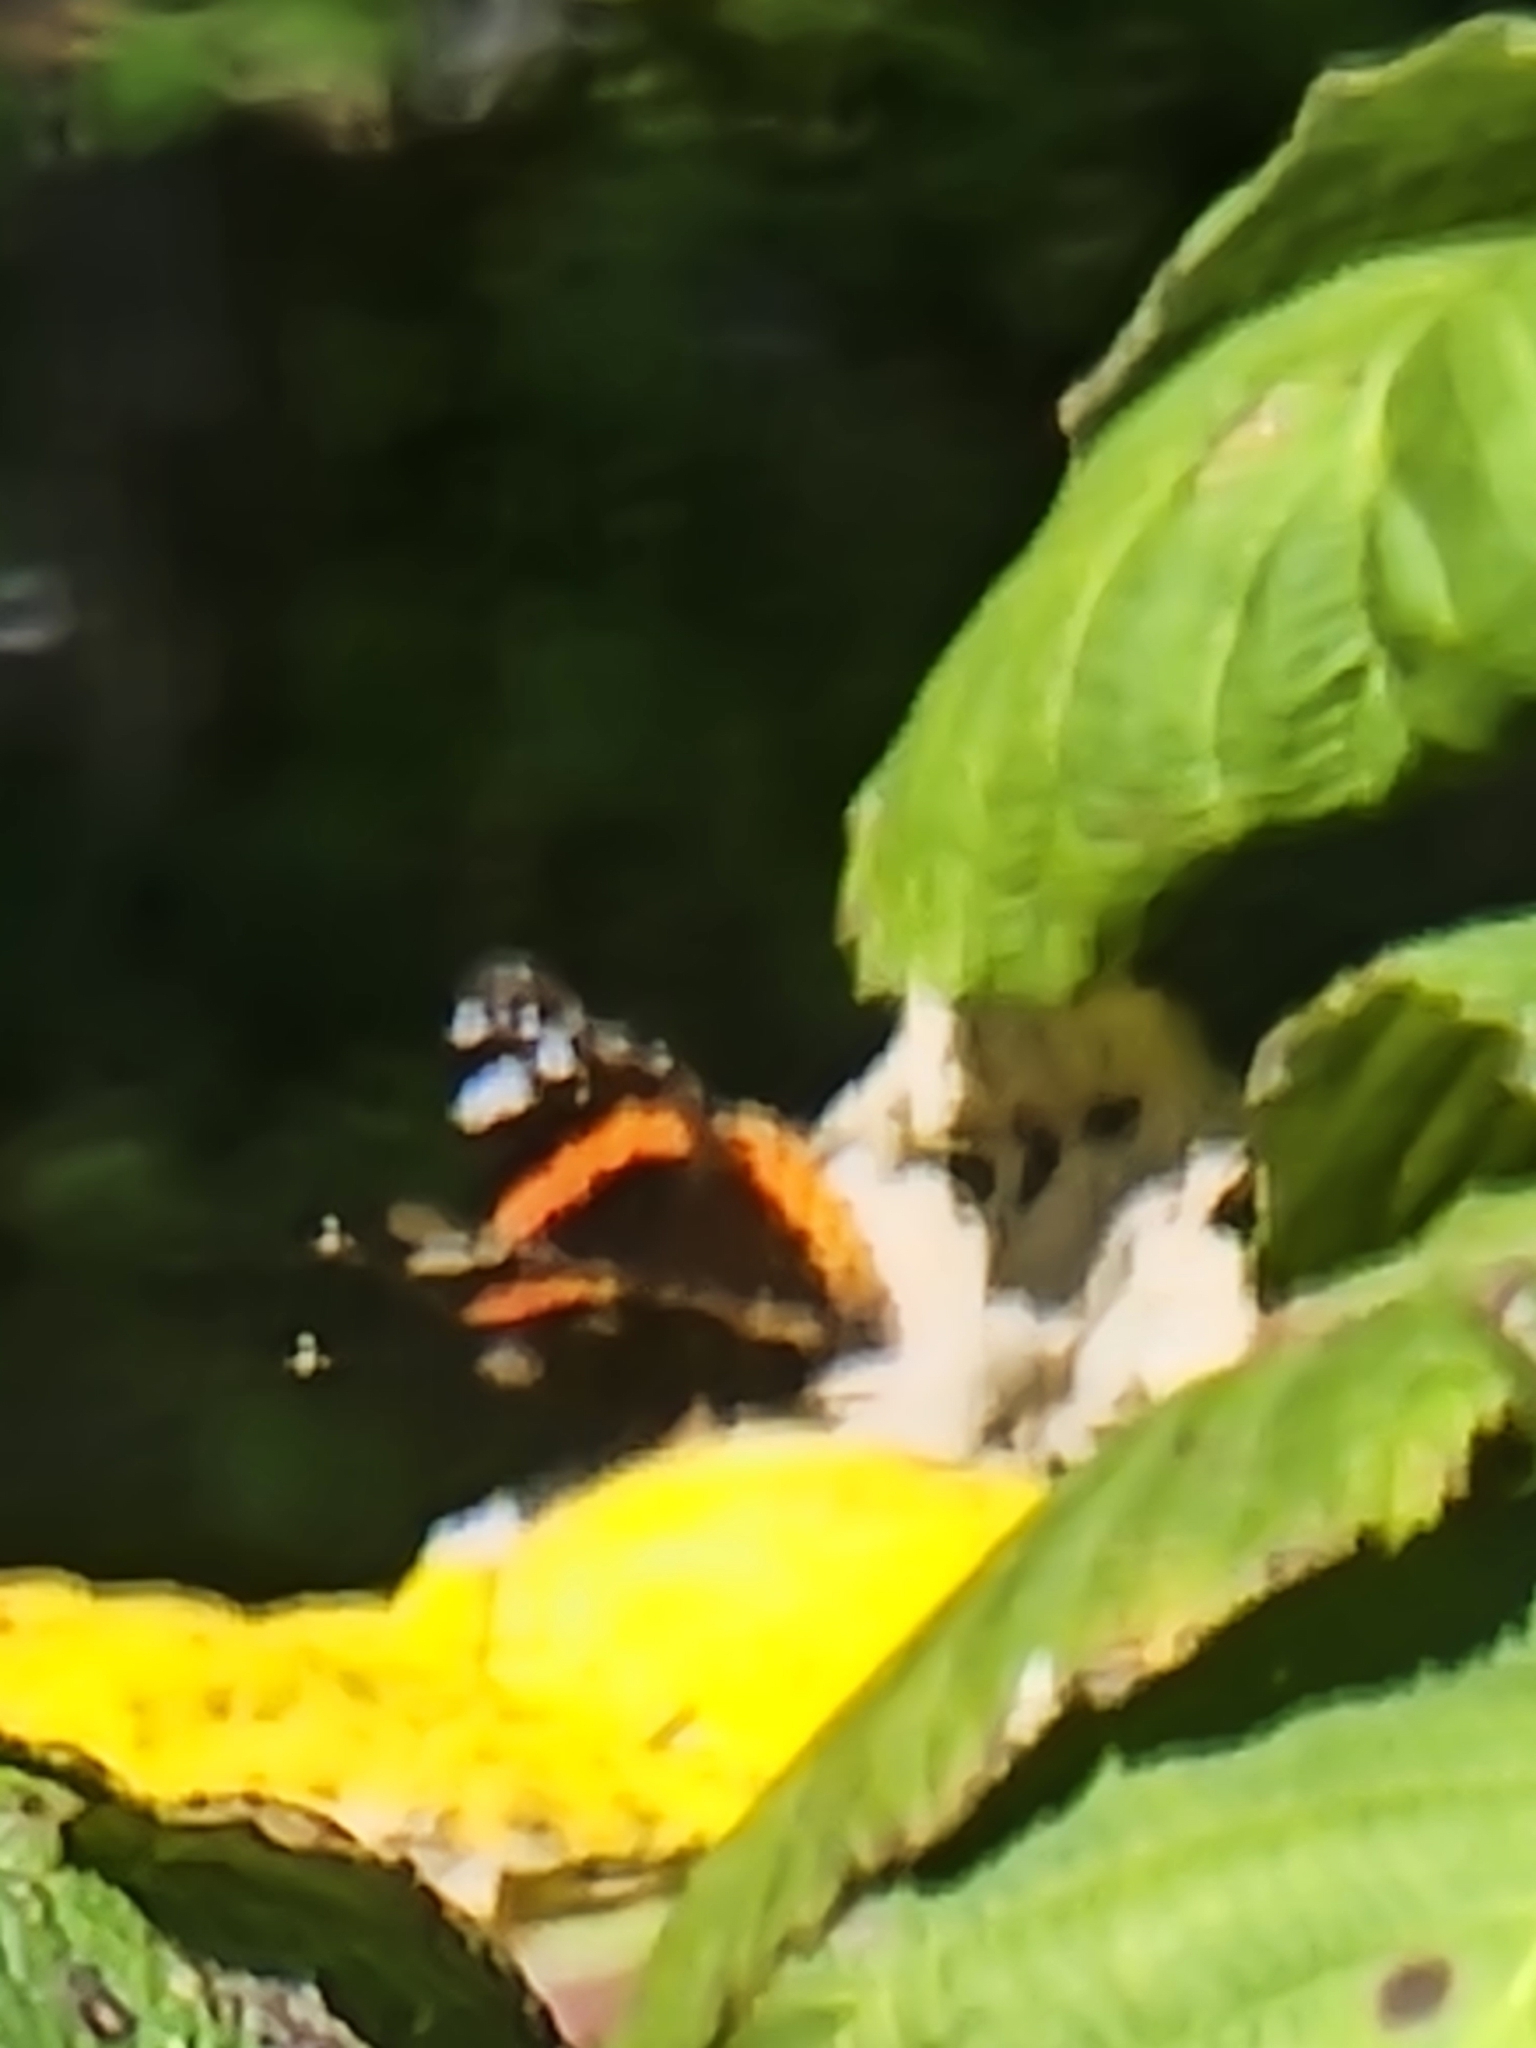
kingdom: Animalia
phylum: Arthropoda
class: Insecta
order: Lepidoptera
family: Nymphalidae
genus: Vanessa
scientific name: Vanessa atalanta
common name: Red admiral
